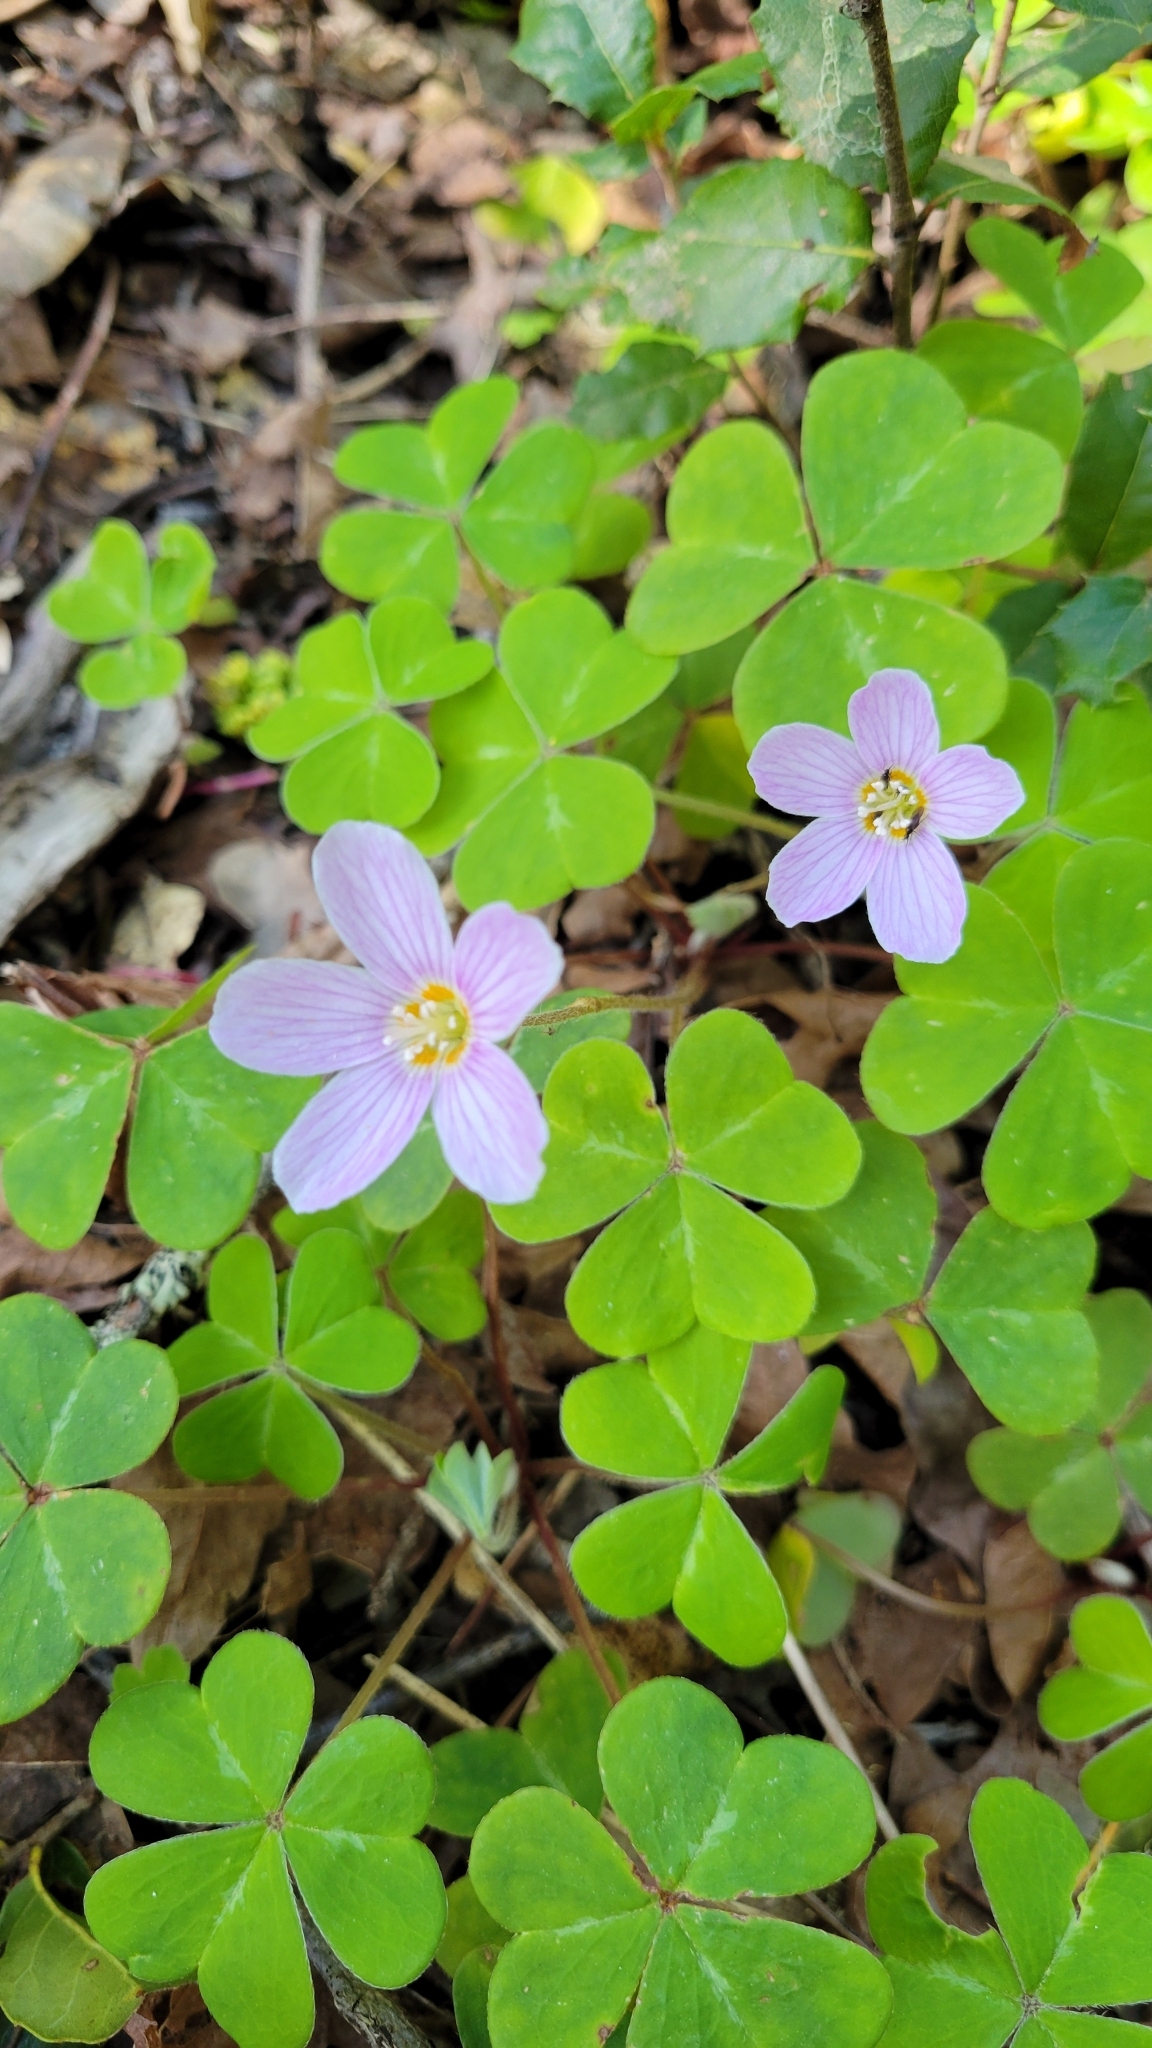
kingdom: Plantae
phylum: Tracheophyta
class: Magnoliopsida
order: Oxalidales
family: Oxalidaceae
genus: Oxalis
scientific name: Oxalis oregana
